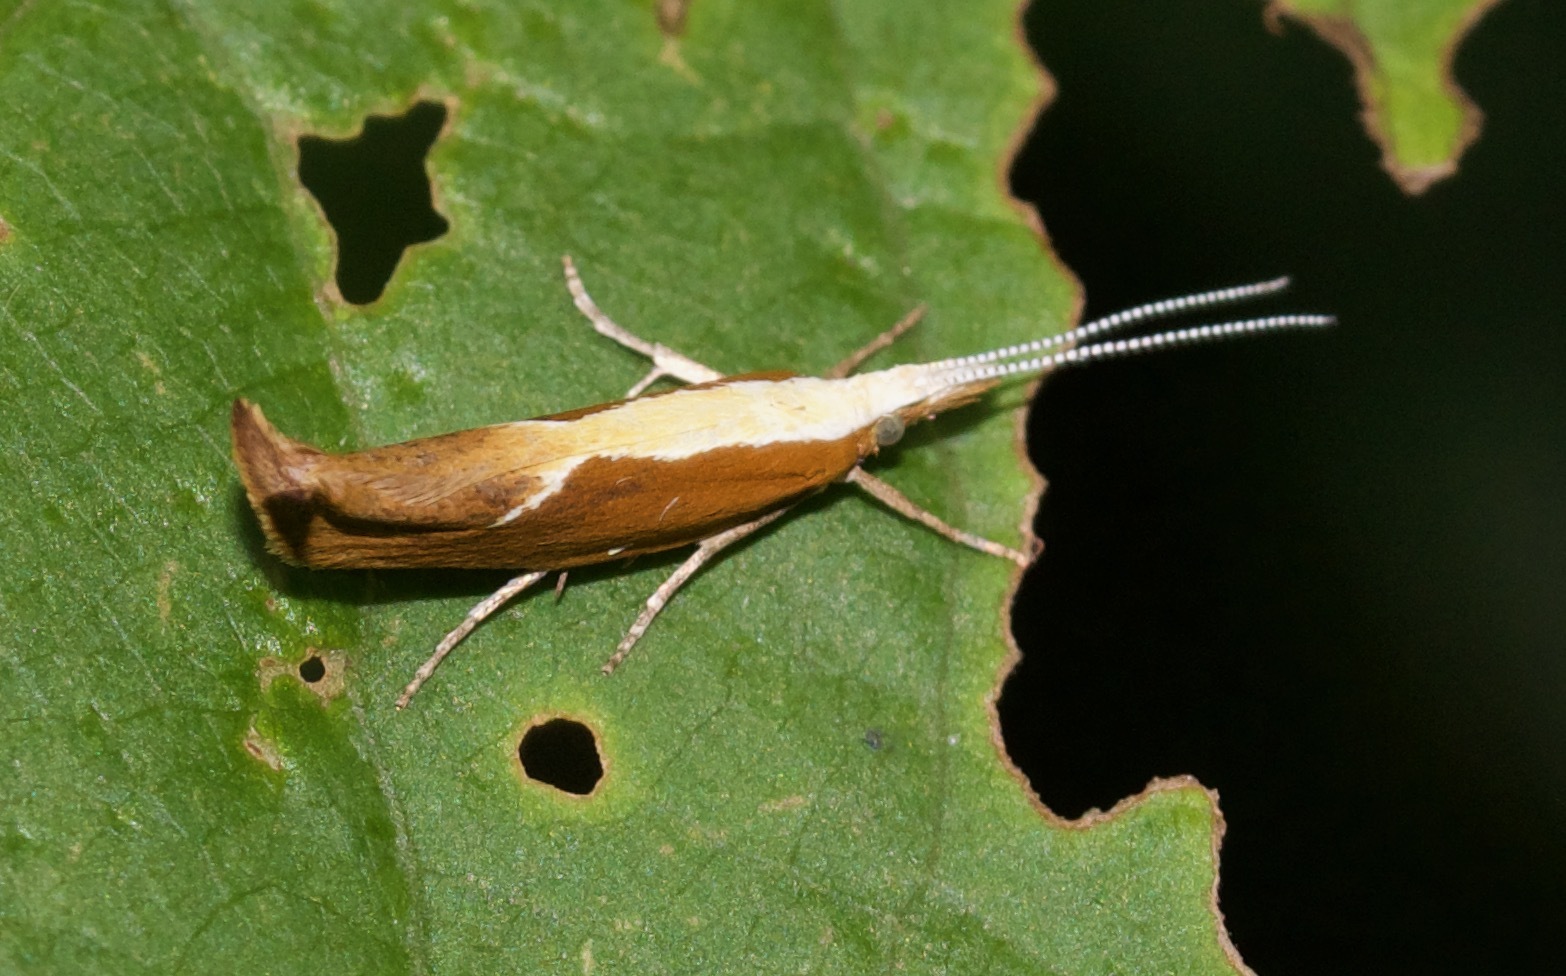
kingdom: Animalia
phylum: Arthropoda
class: Insecta
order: Lepidoptera
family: Ypsolophidae
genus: Ypsolopha
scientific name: Ypsolopha dentella
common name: Honeysuckle moth
